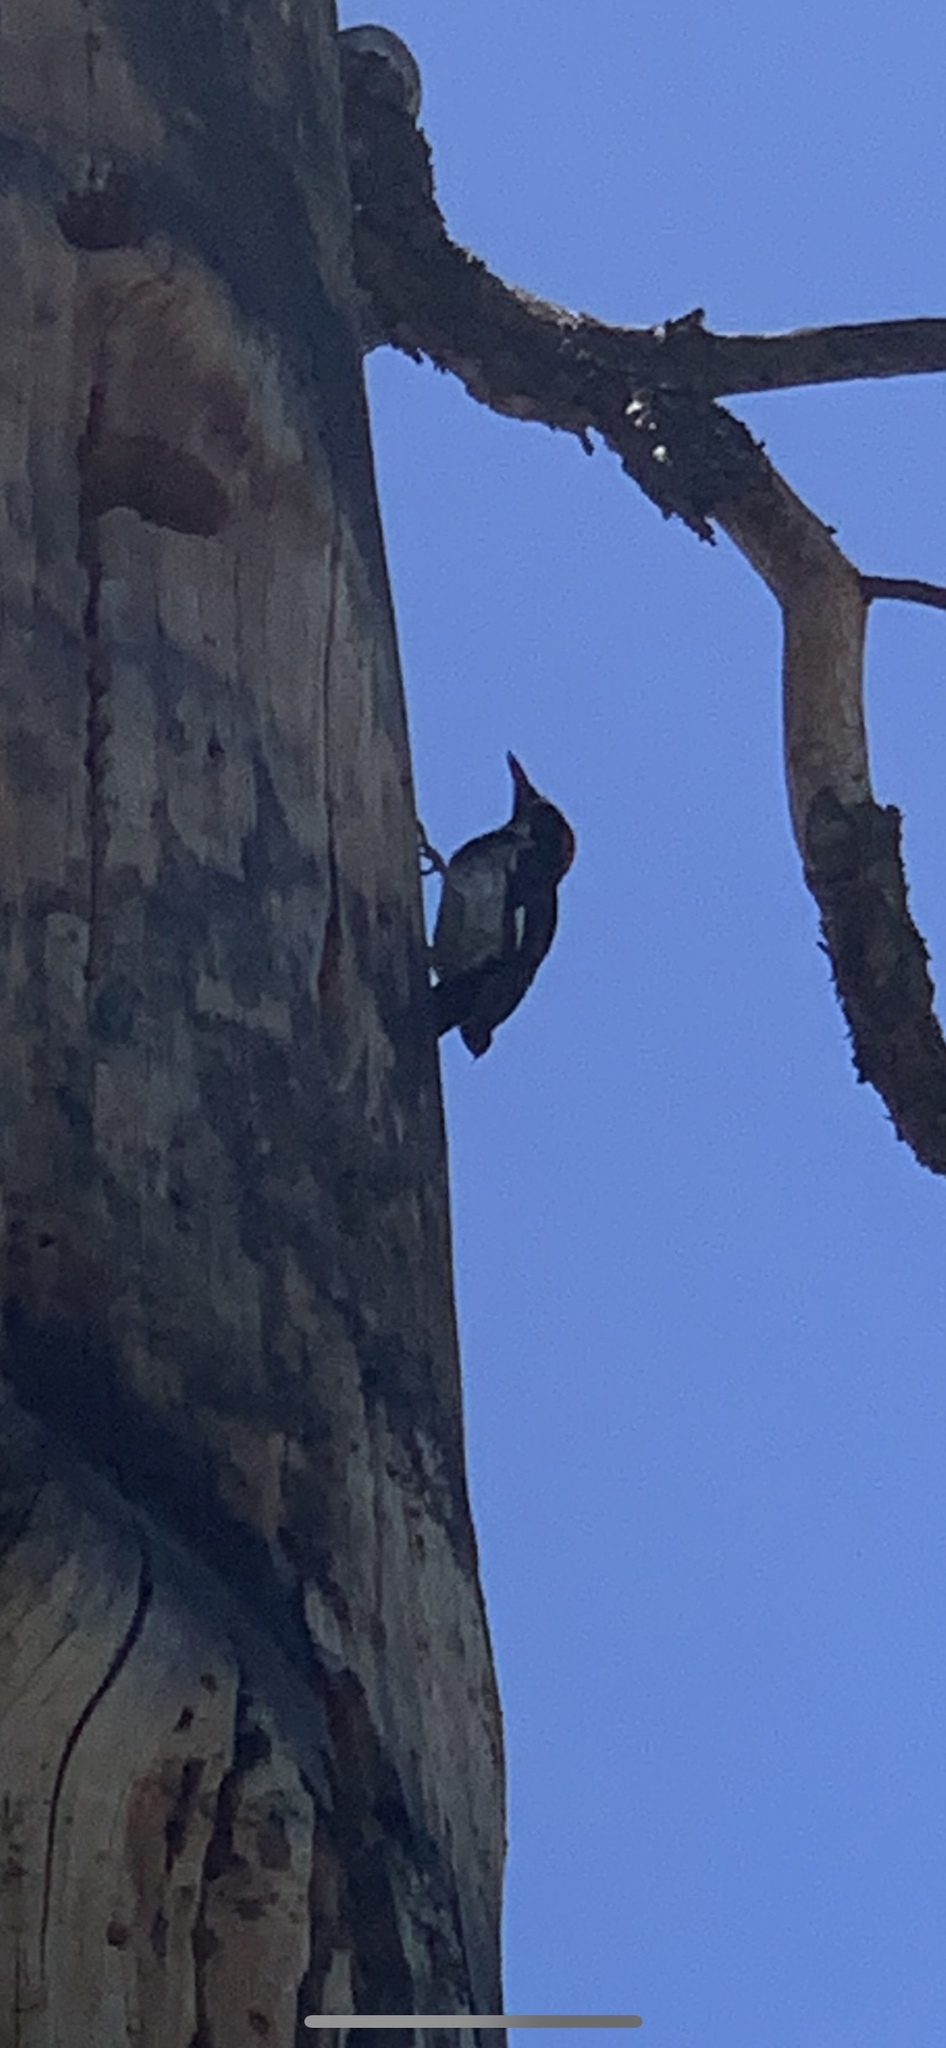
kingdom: Animalia
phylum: Chordata
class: Aves
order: Piciformes
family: Picidae
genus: Melanerpes
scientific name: Melanerpes formicivorus
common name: Acorn woodpecker
